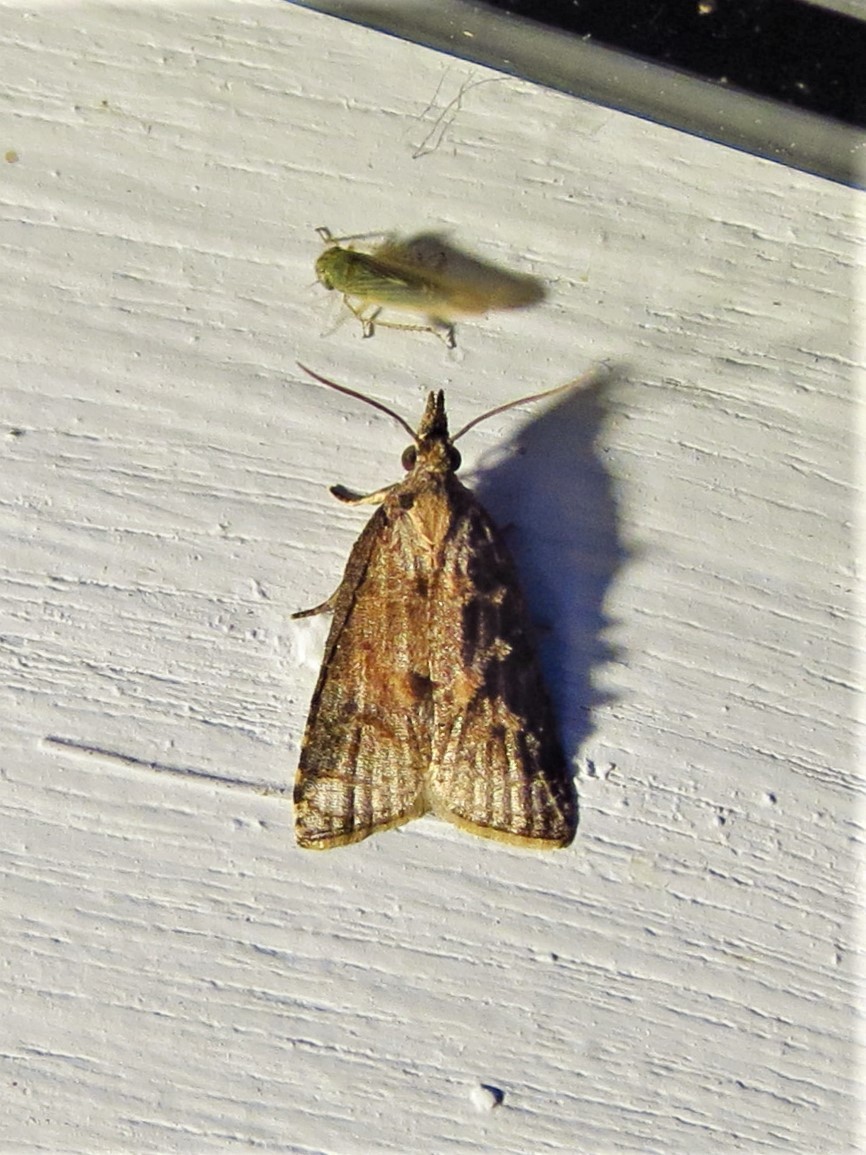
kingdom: Animalia
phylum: Arthropoda
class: Insecta
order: Lepidoptera
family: Tortricidae
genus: Platynota
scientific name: Platynota rostrana
